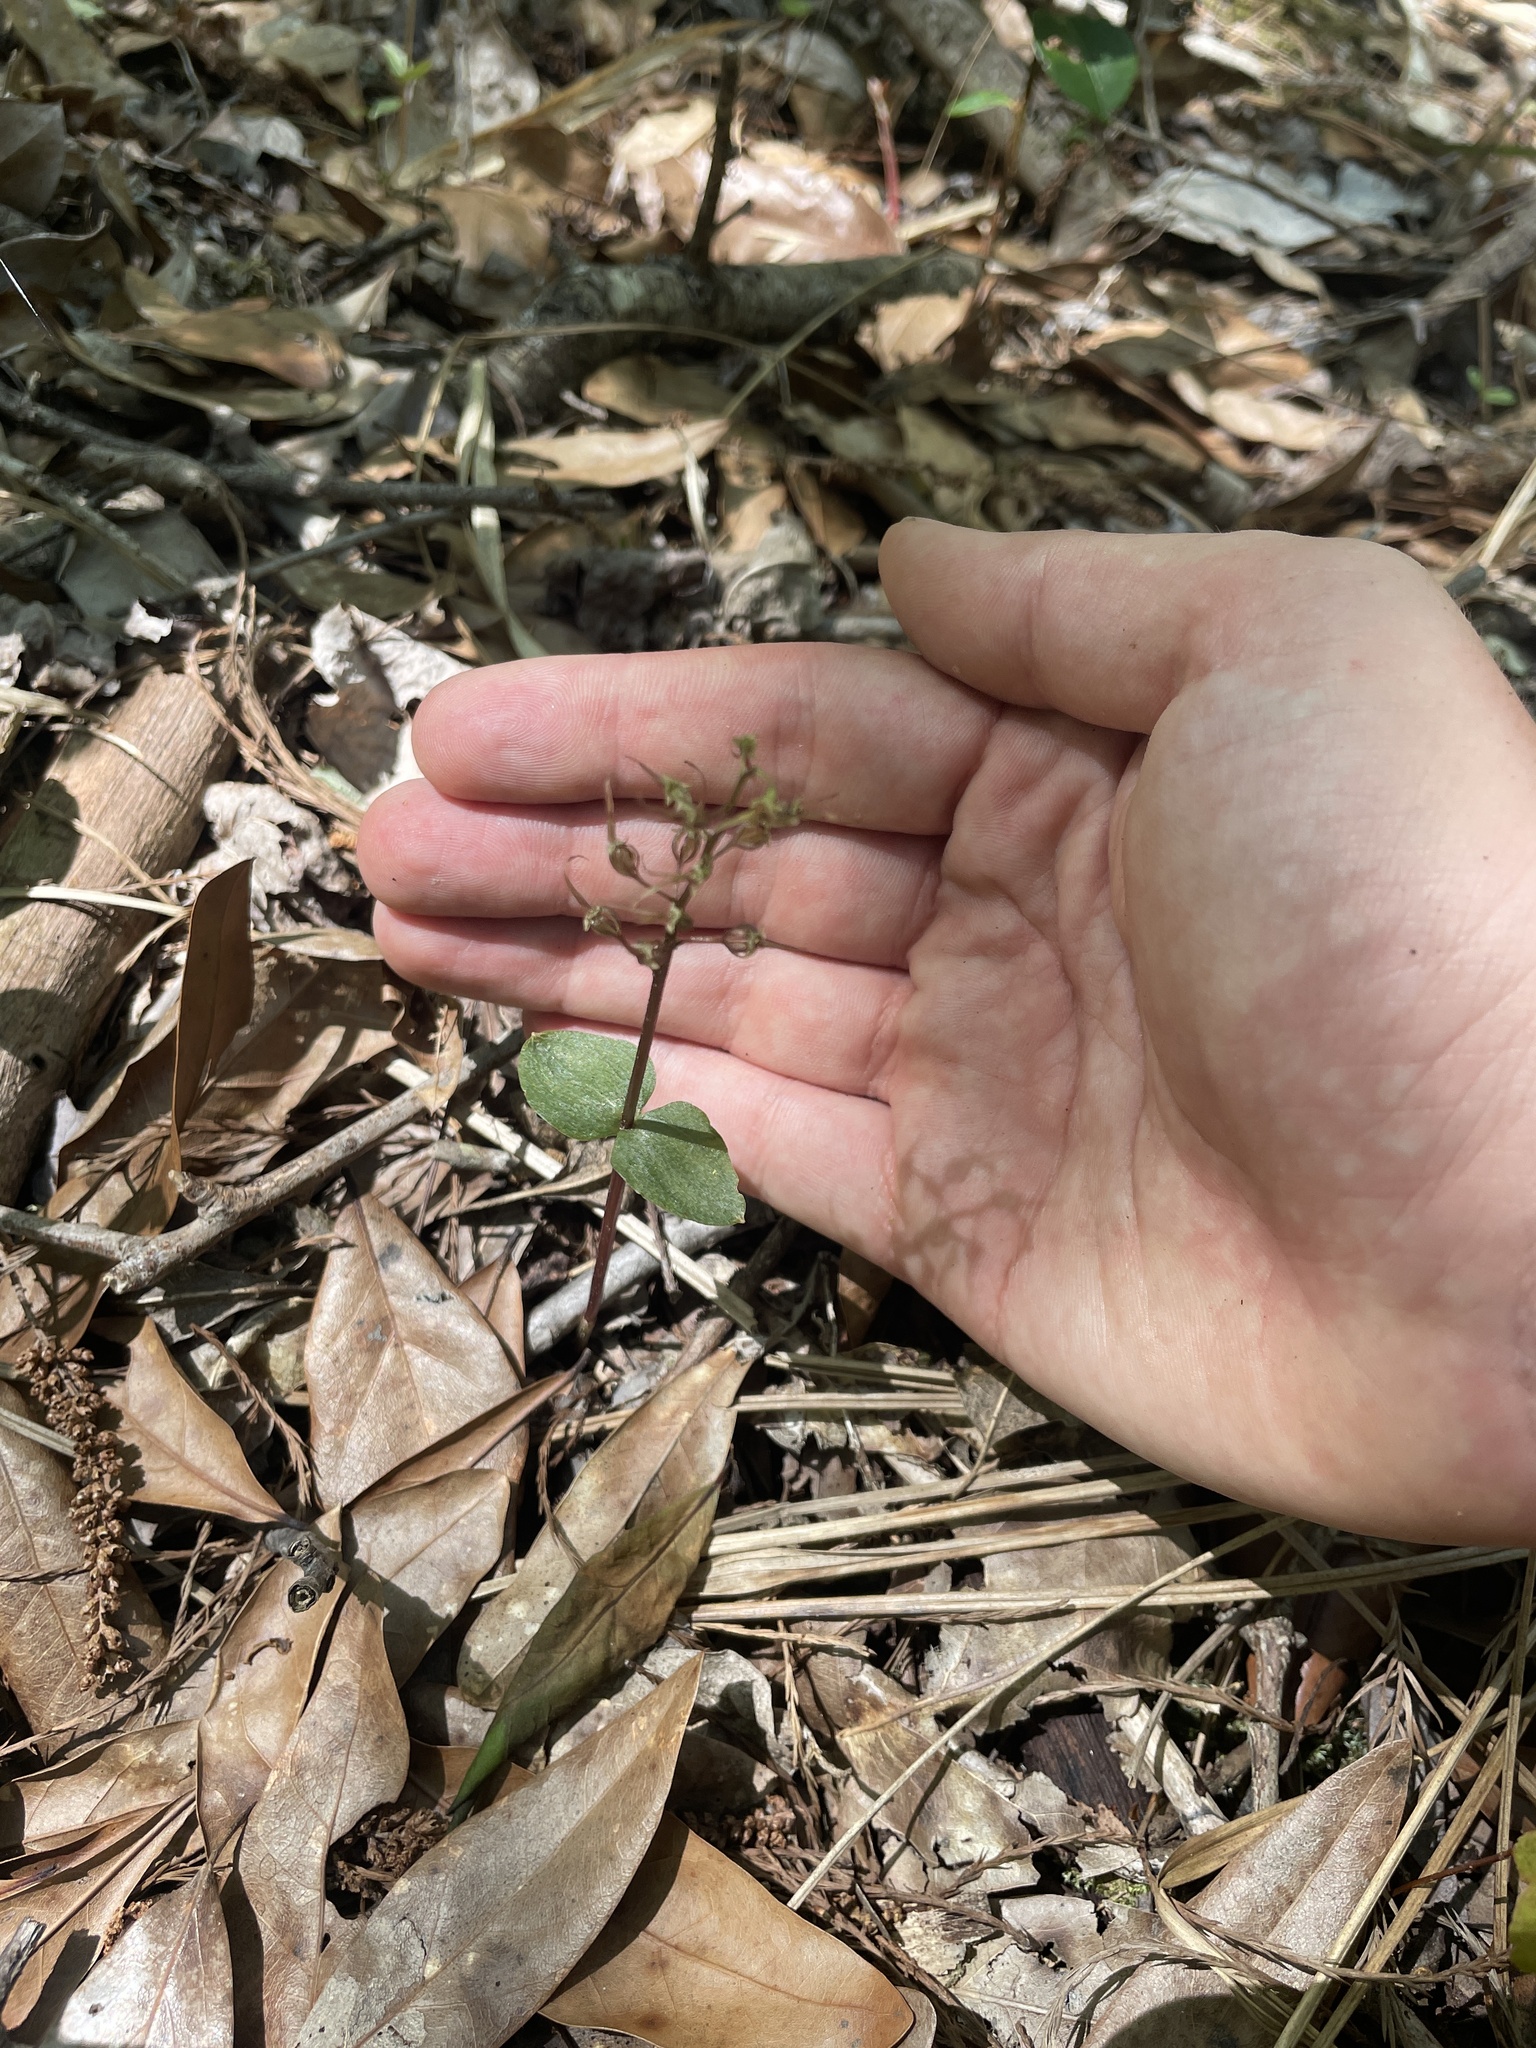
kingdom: Plantae
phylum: Tracheophyta
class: Liliopsida
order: Asparagales
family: Orchidaceae
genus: Neottia
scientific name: Neottia bifolia
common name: Southern twayblade
